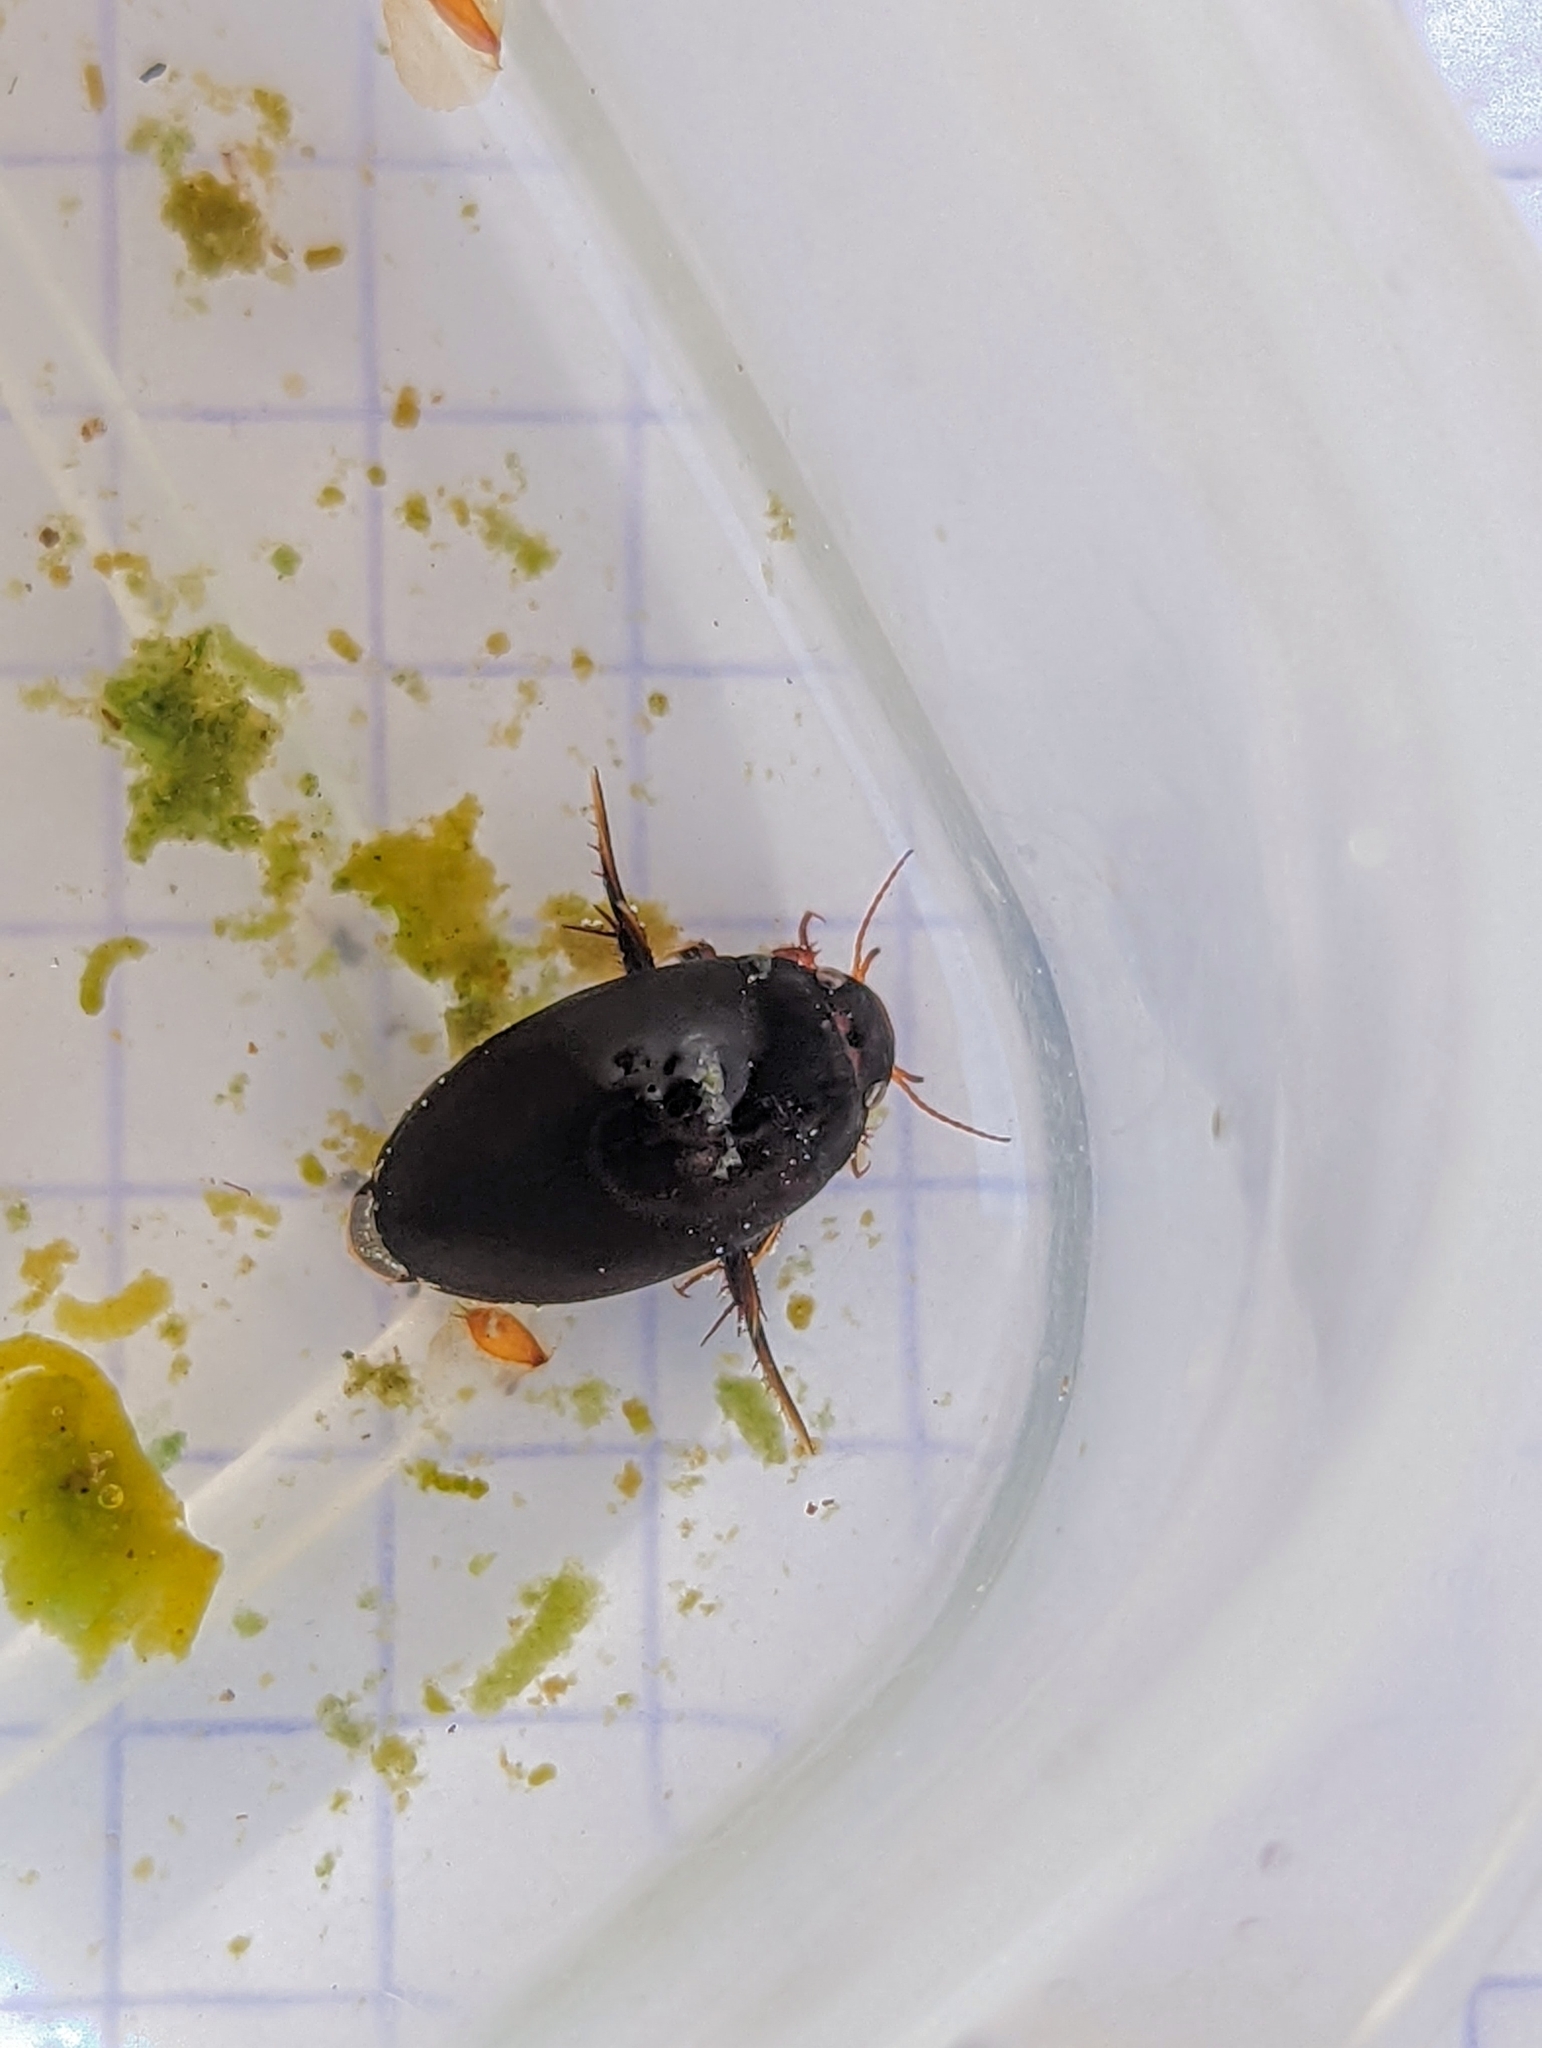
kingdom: Animalia
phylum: Arthropoda
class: Insecta
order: Coleoptera
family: Dytiscidae
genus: Agabus
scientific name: Agabus bipustulatus
